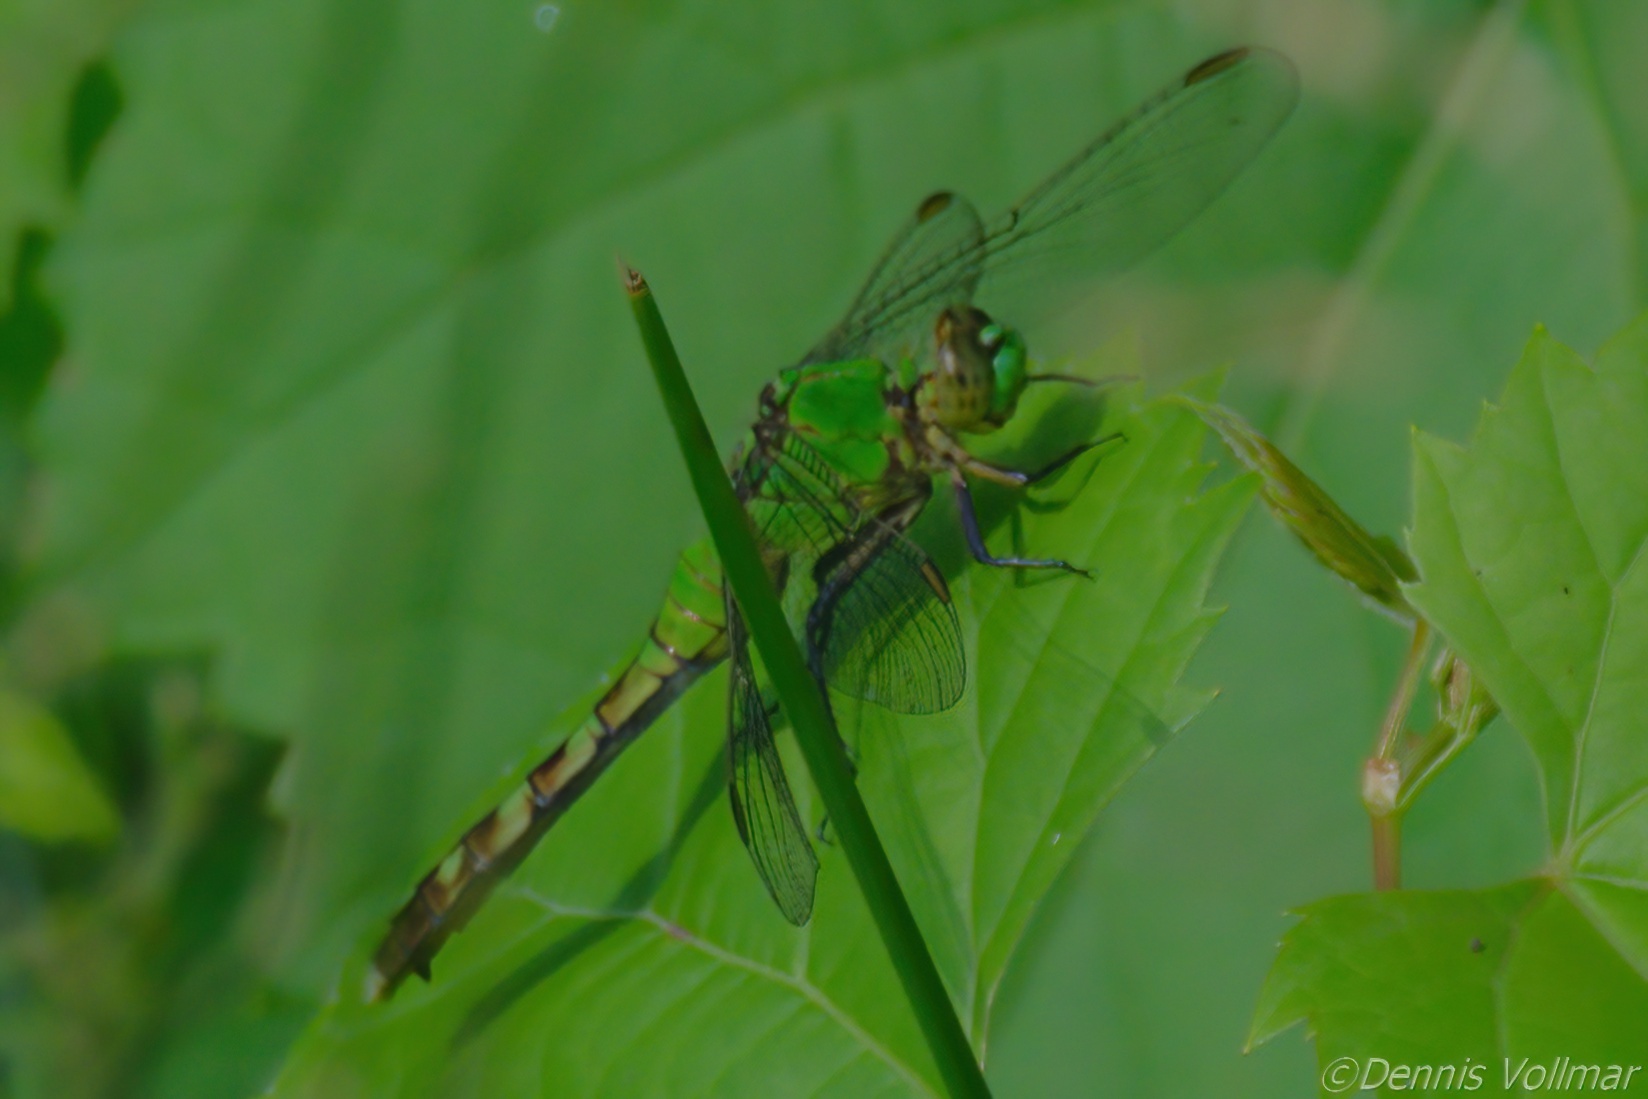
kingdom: Animalia
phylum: Arthropoda
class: Insecta
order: Odonata
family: Libellulidae
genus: Erythemis
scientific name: Erythemis simplicicollis
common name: Eastern pondhawk
